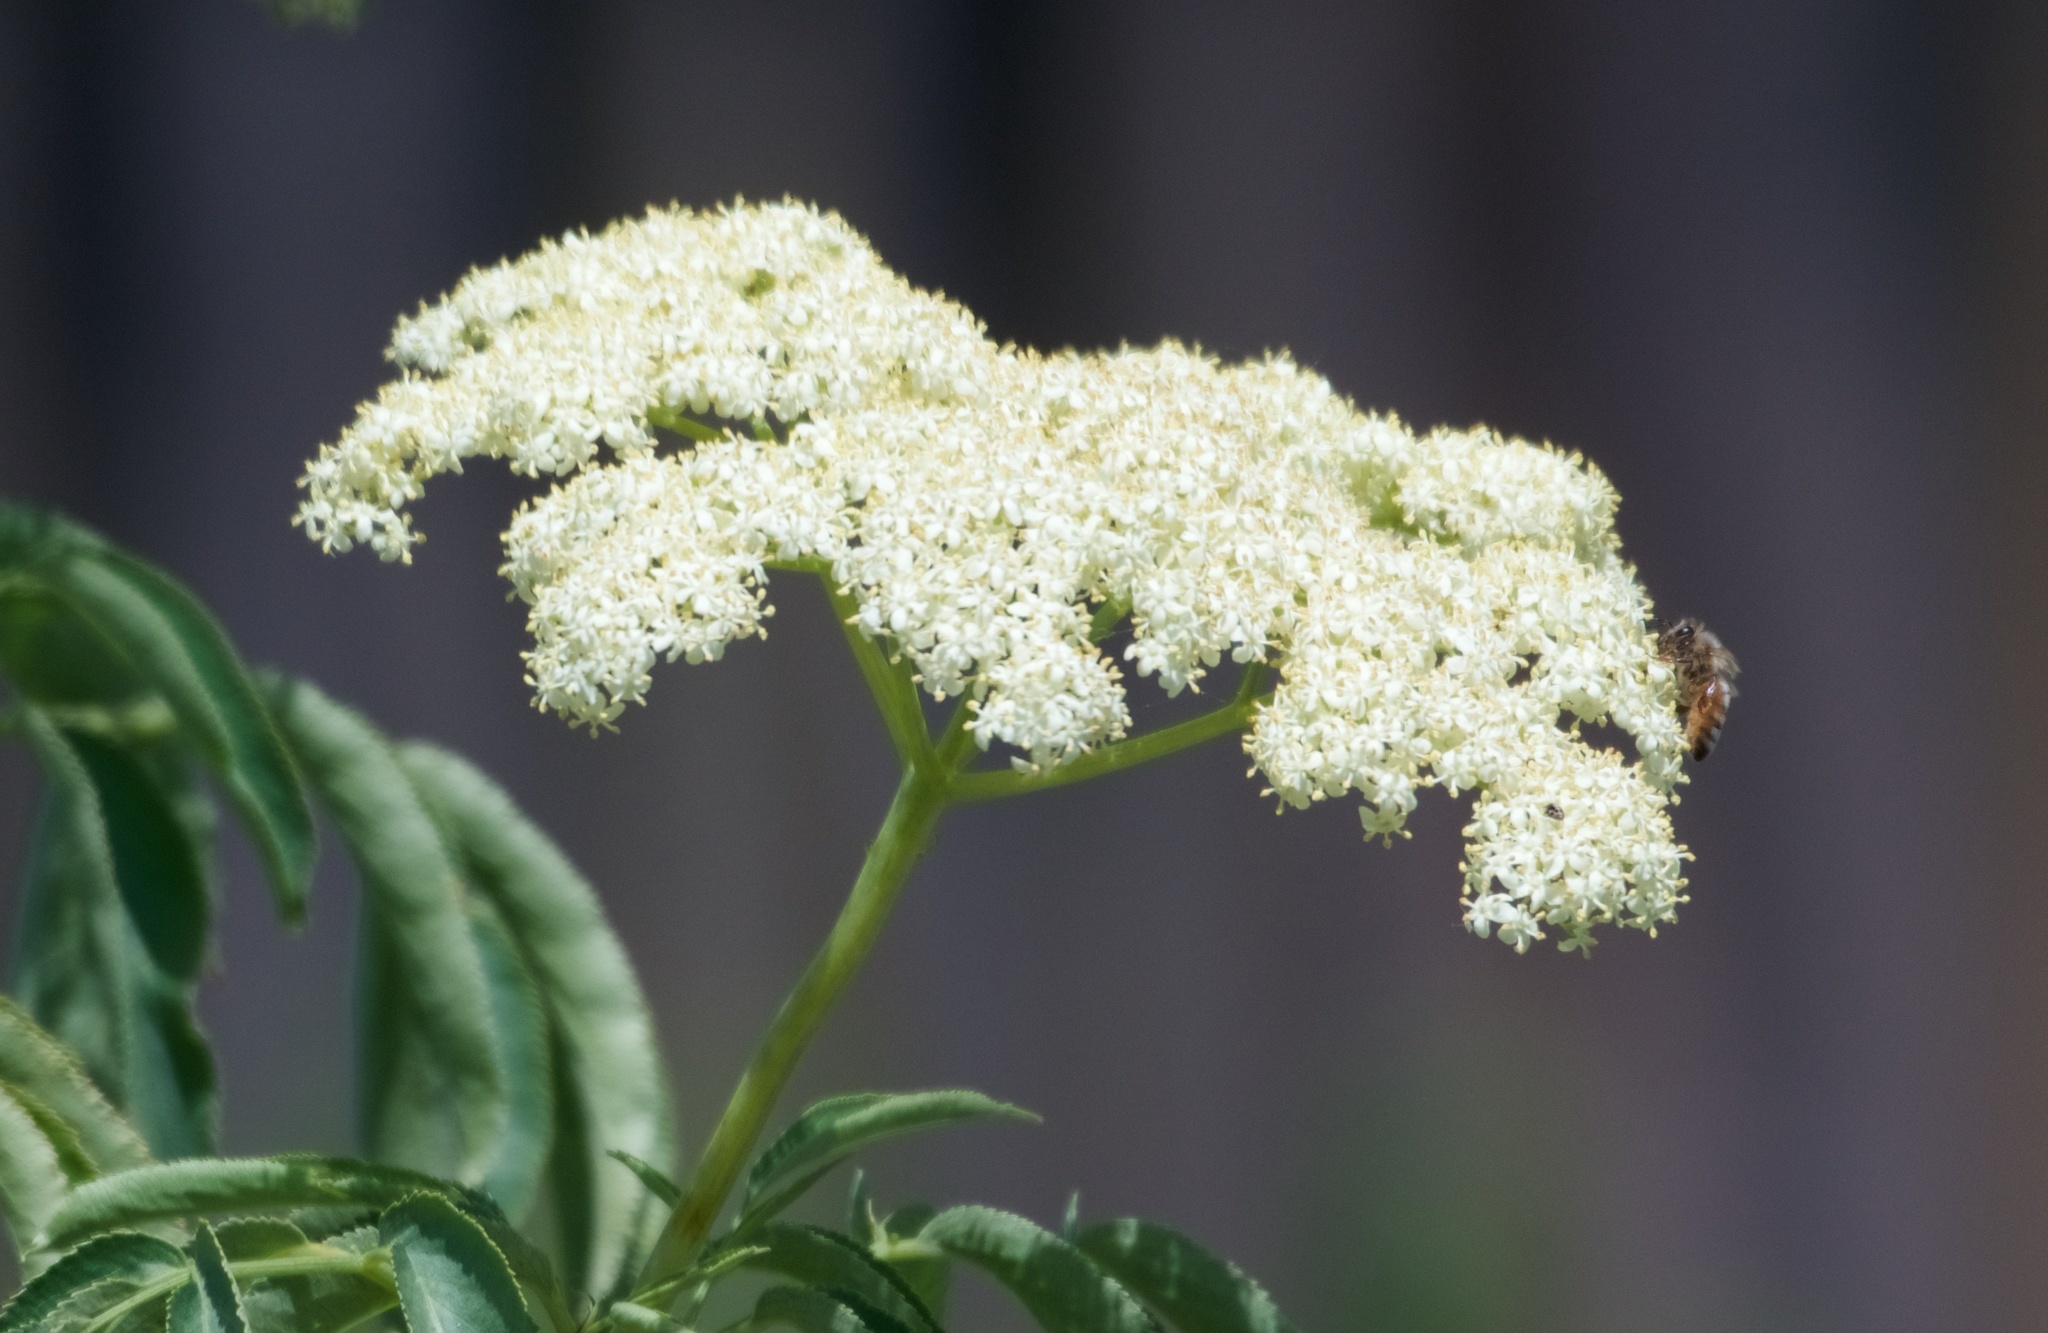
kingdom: Plantae
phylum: Tracheophyta
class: Magnoliopsida
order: Dipsacales
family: Viburnaceae
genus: Sambucus
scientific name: Sambucus cerulea
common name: Blue elder
